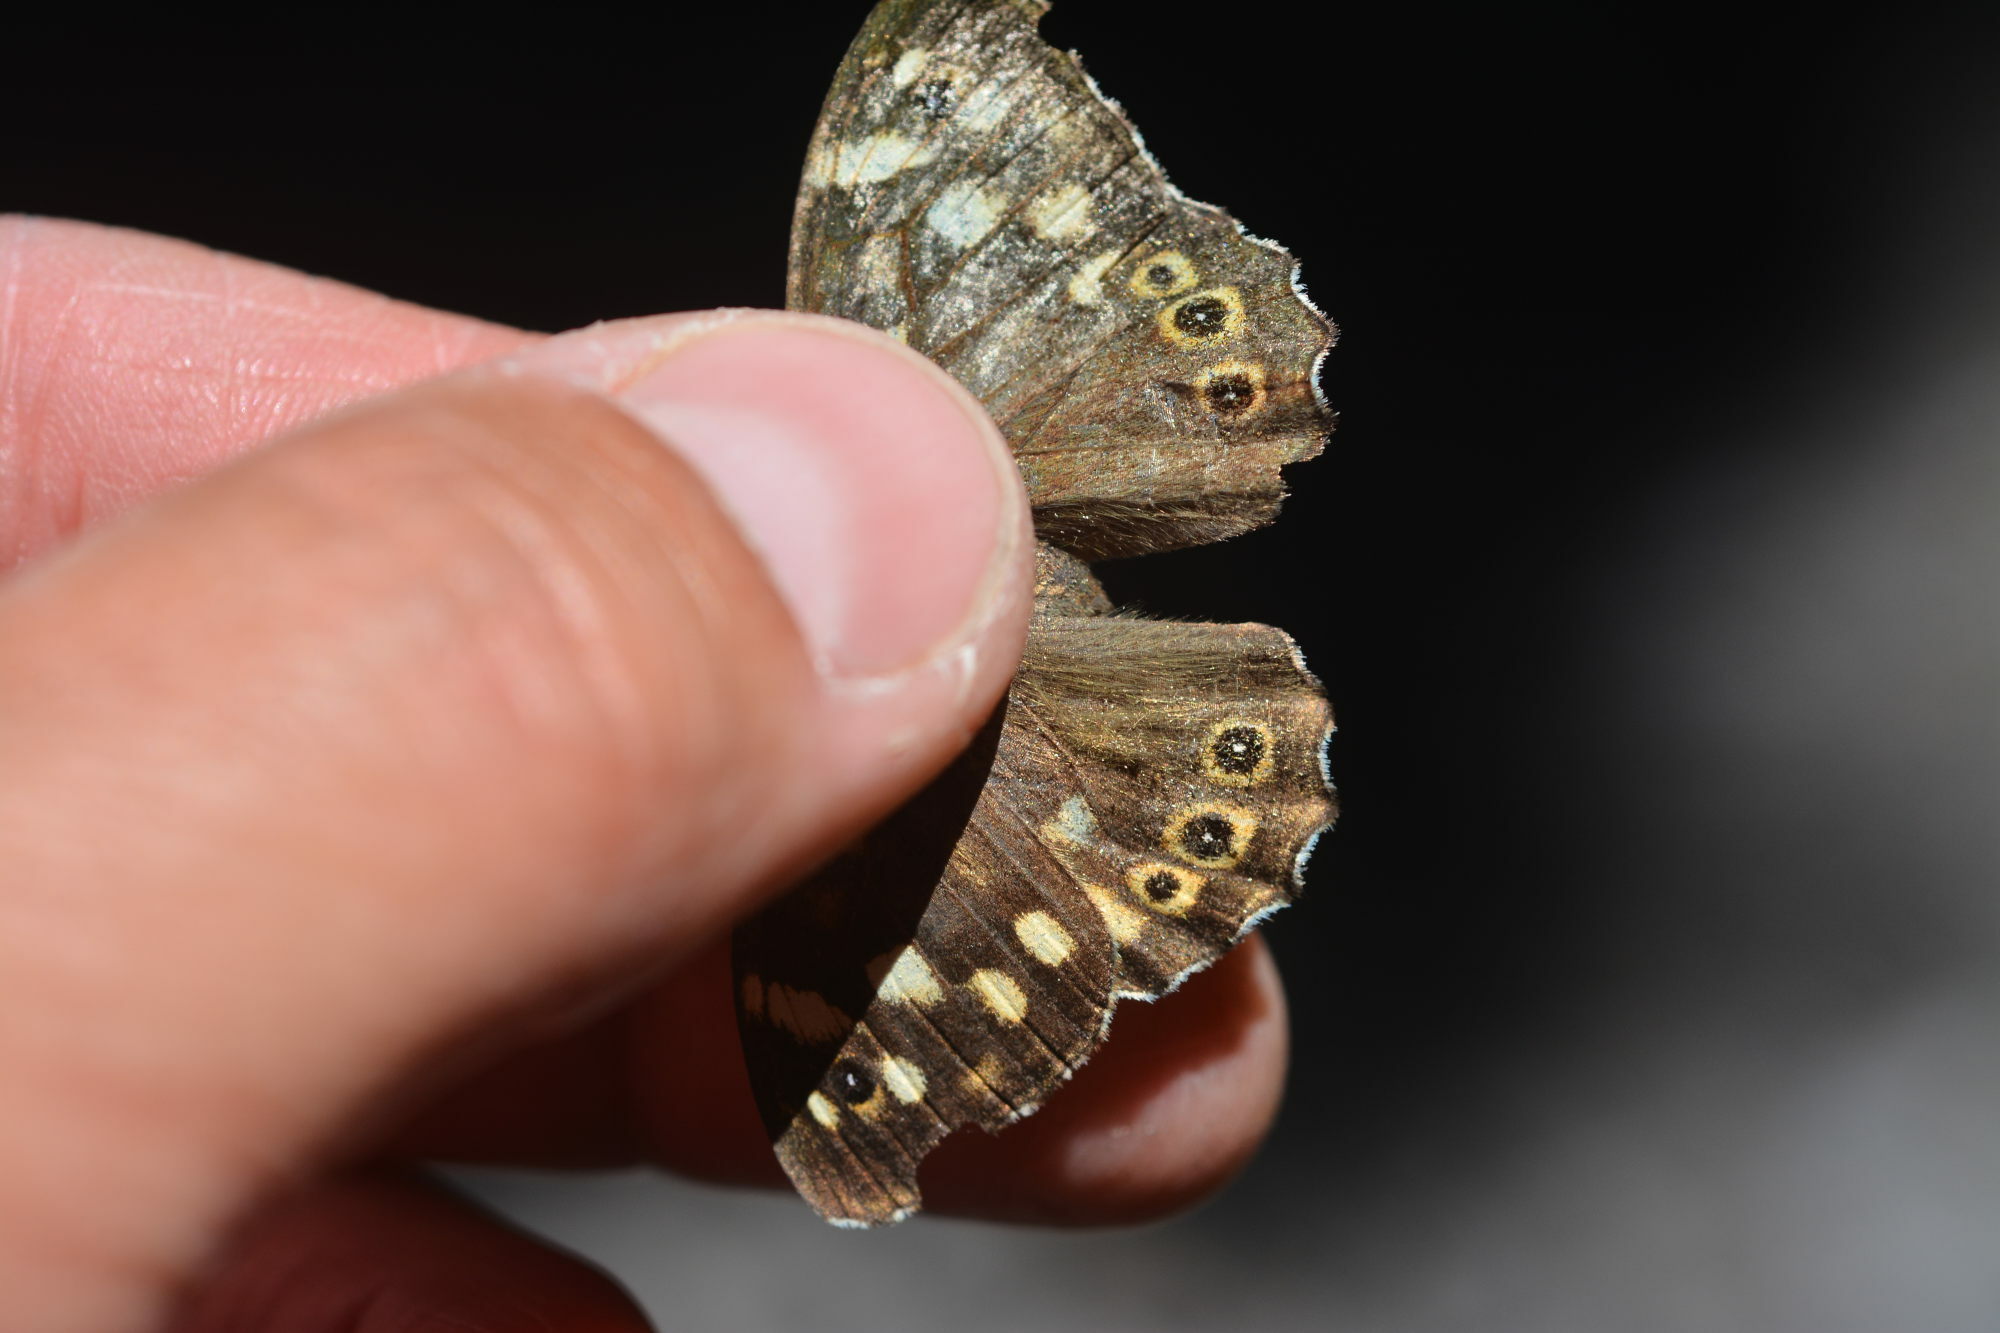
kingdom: Animalia
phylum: Arthropoda
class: Insecta
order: Lepidoptera
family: Nymphalidae
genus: Pararge
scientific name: Pararge aegeria
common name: Speckled wood
